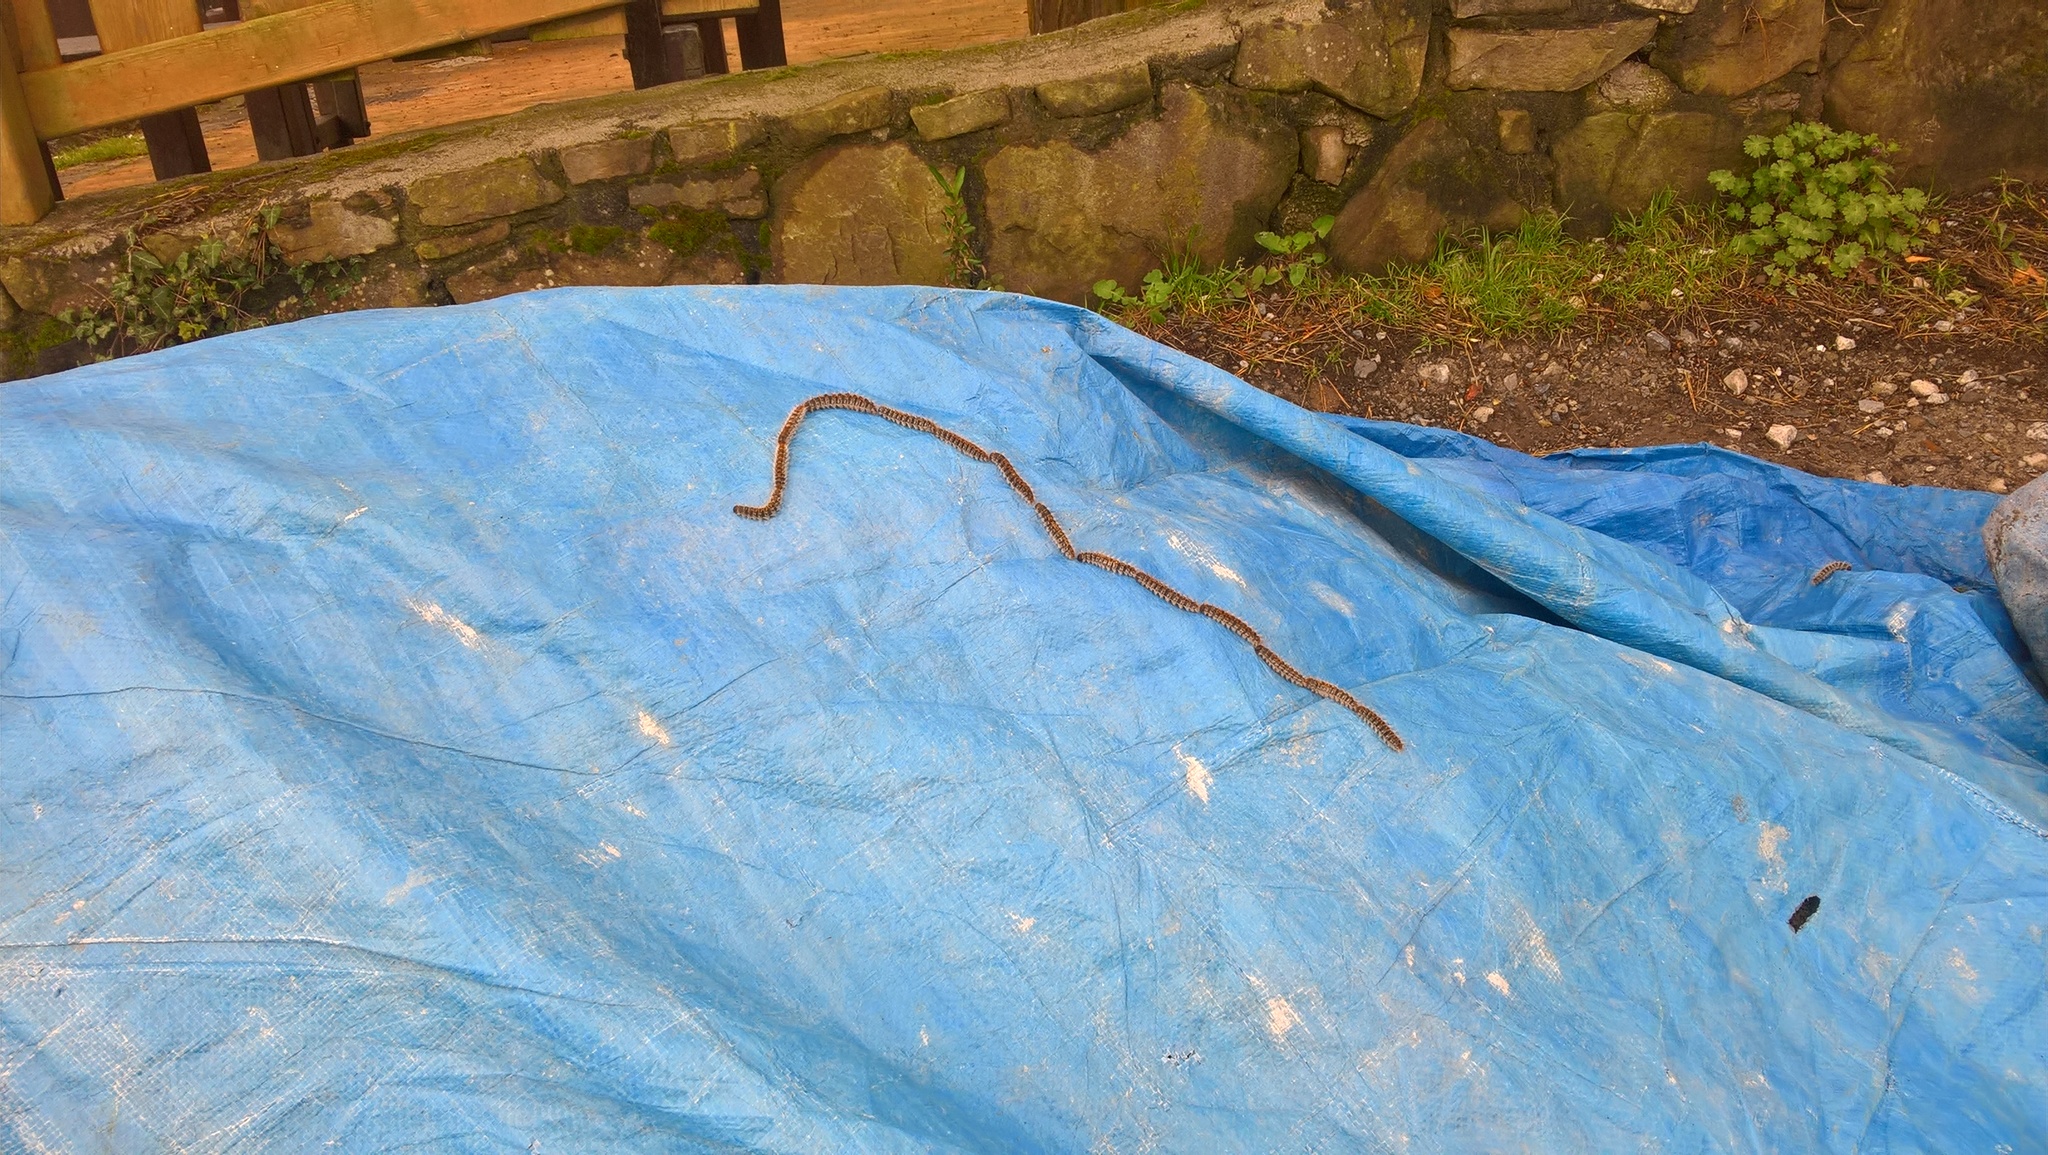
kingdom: Animalia
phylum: Arthropoda
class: Insecta
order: Lepidoptera
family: Notodontidae
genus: Thaumetopoea
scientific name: Thaumetopoea pityocampa
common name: Pine processionary
